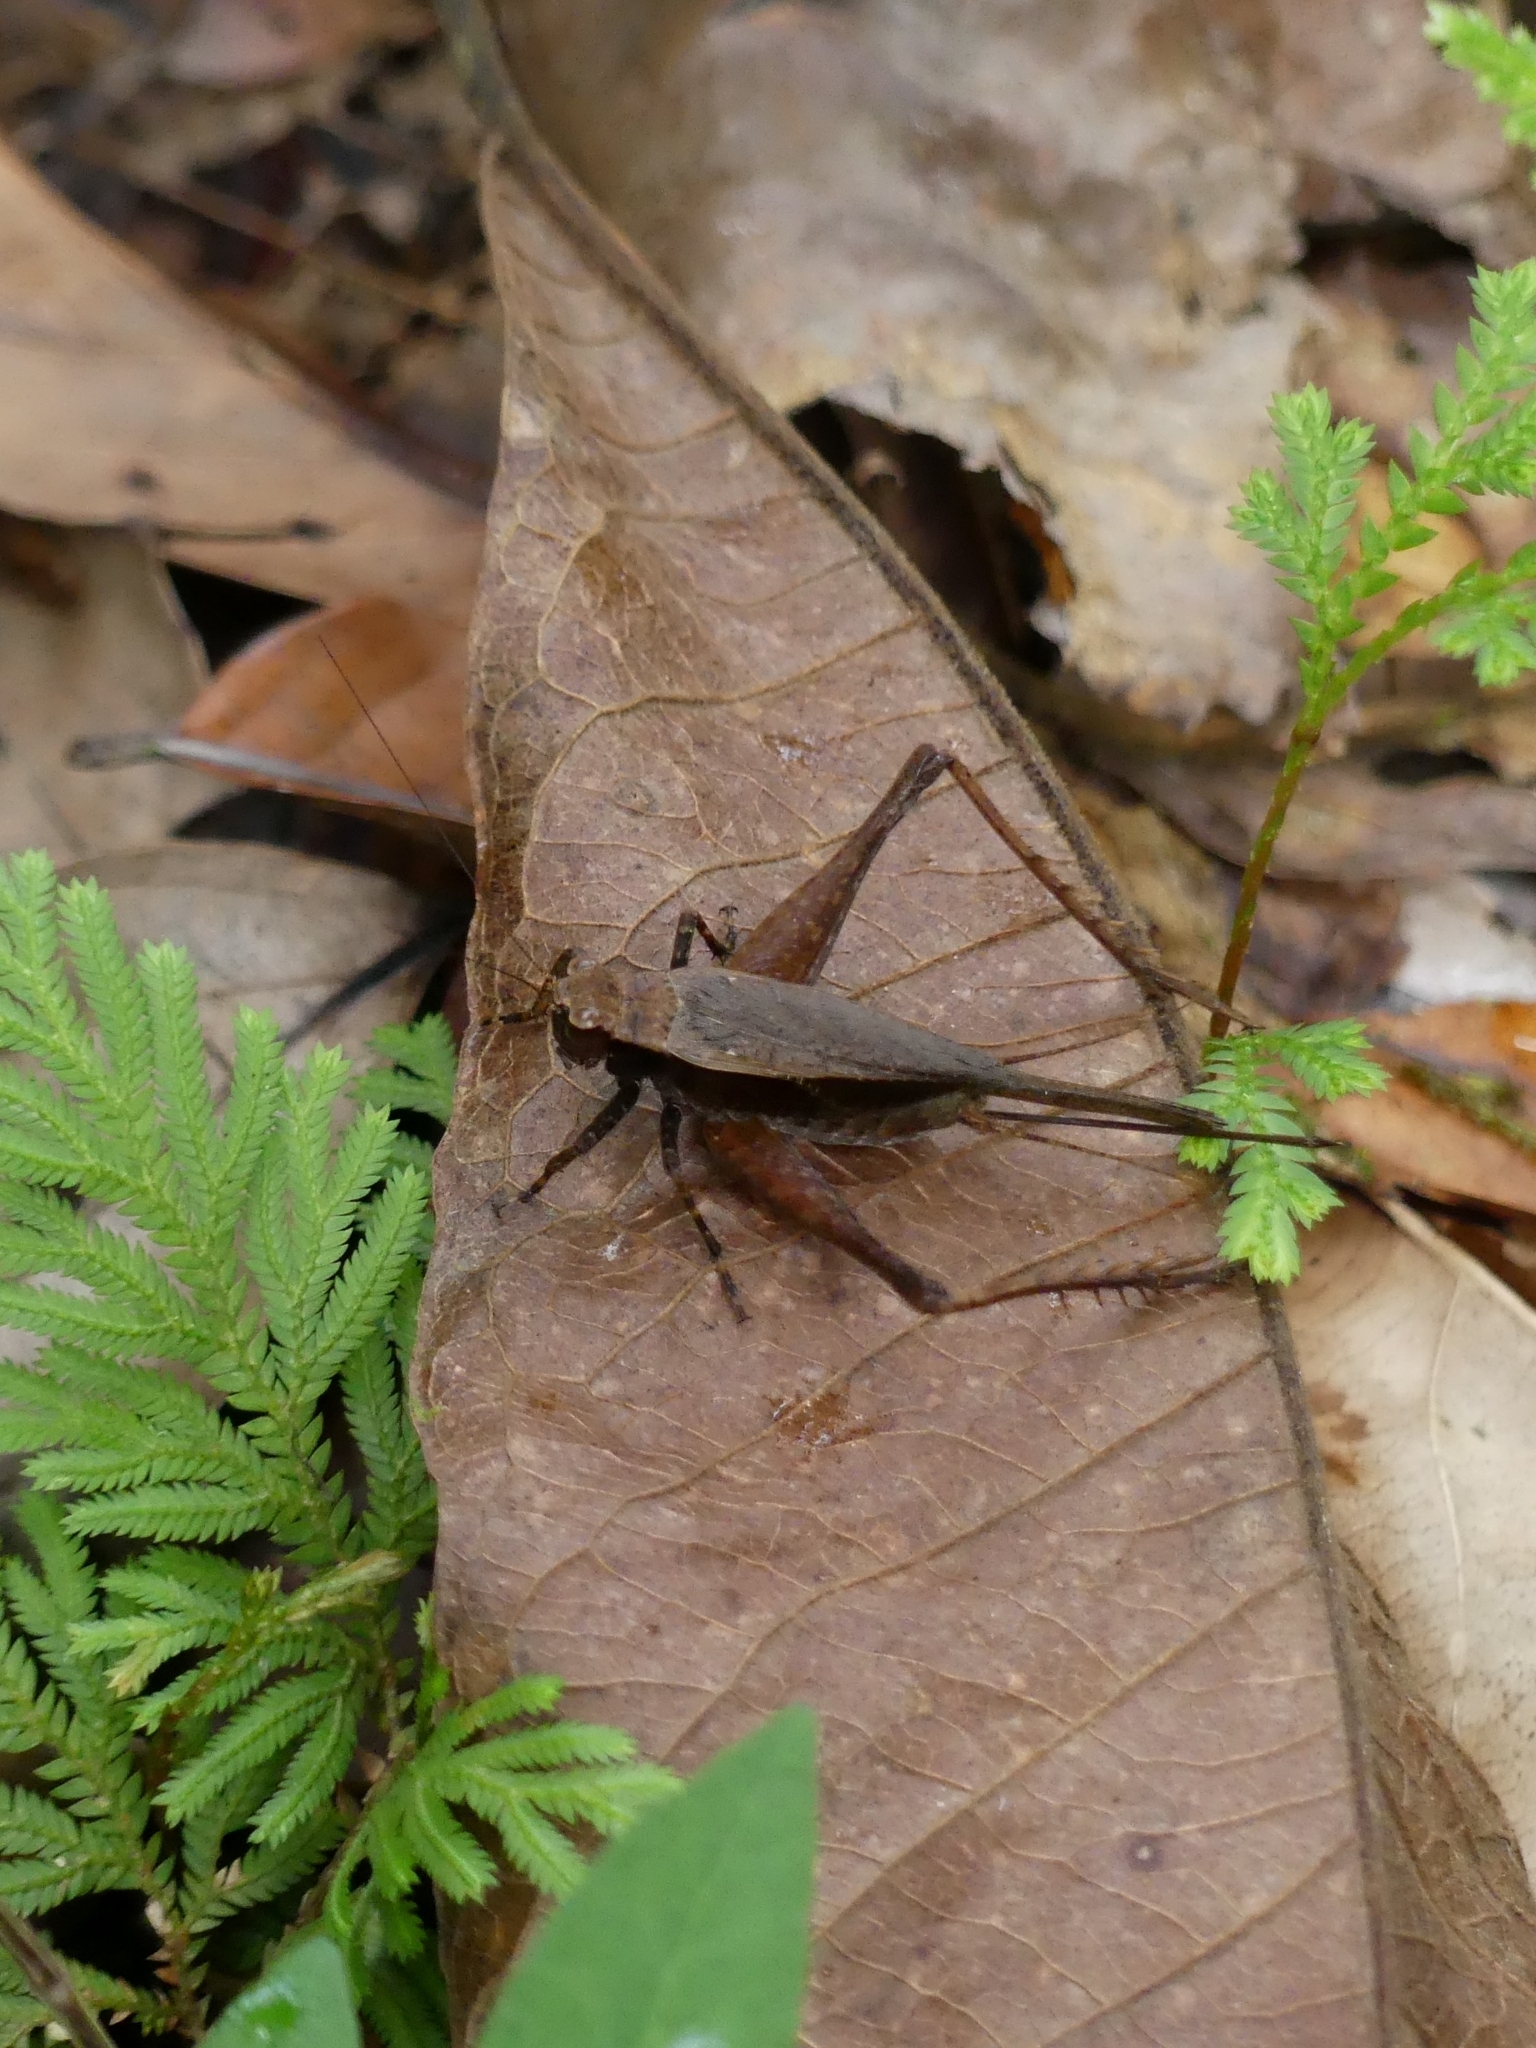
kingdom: Animalia
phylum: Arthropoda
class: Insecta
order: Orthoptera
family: Gryllidae
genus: Eneoptera
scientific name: Eneoptera
